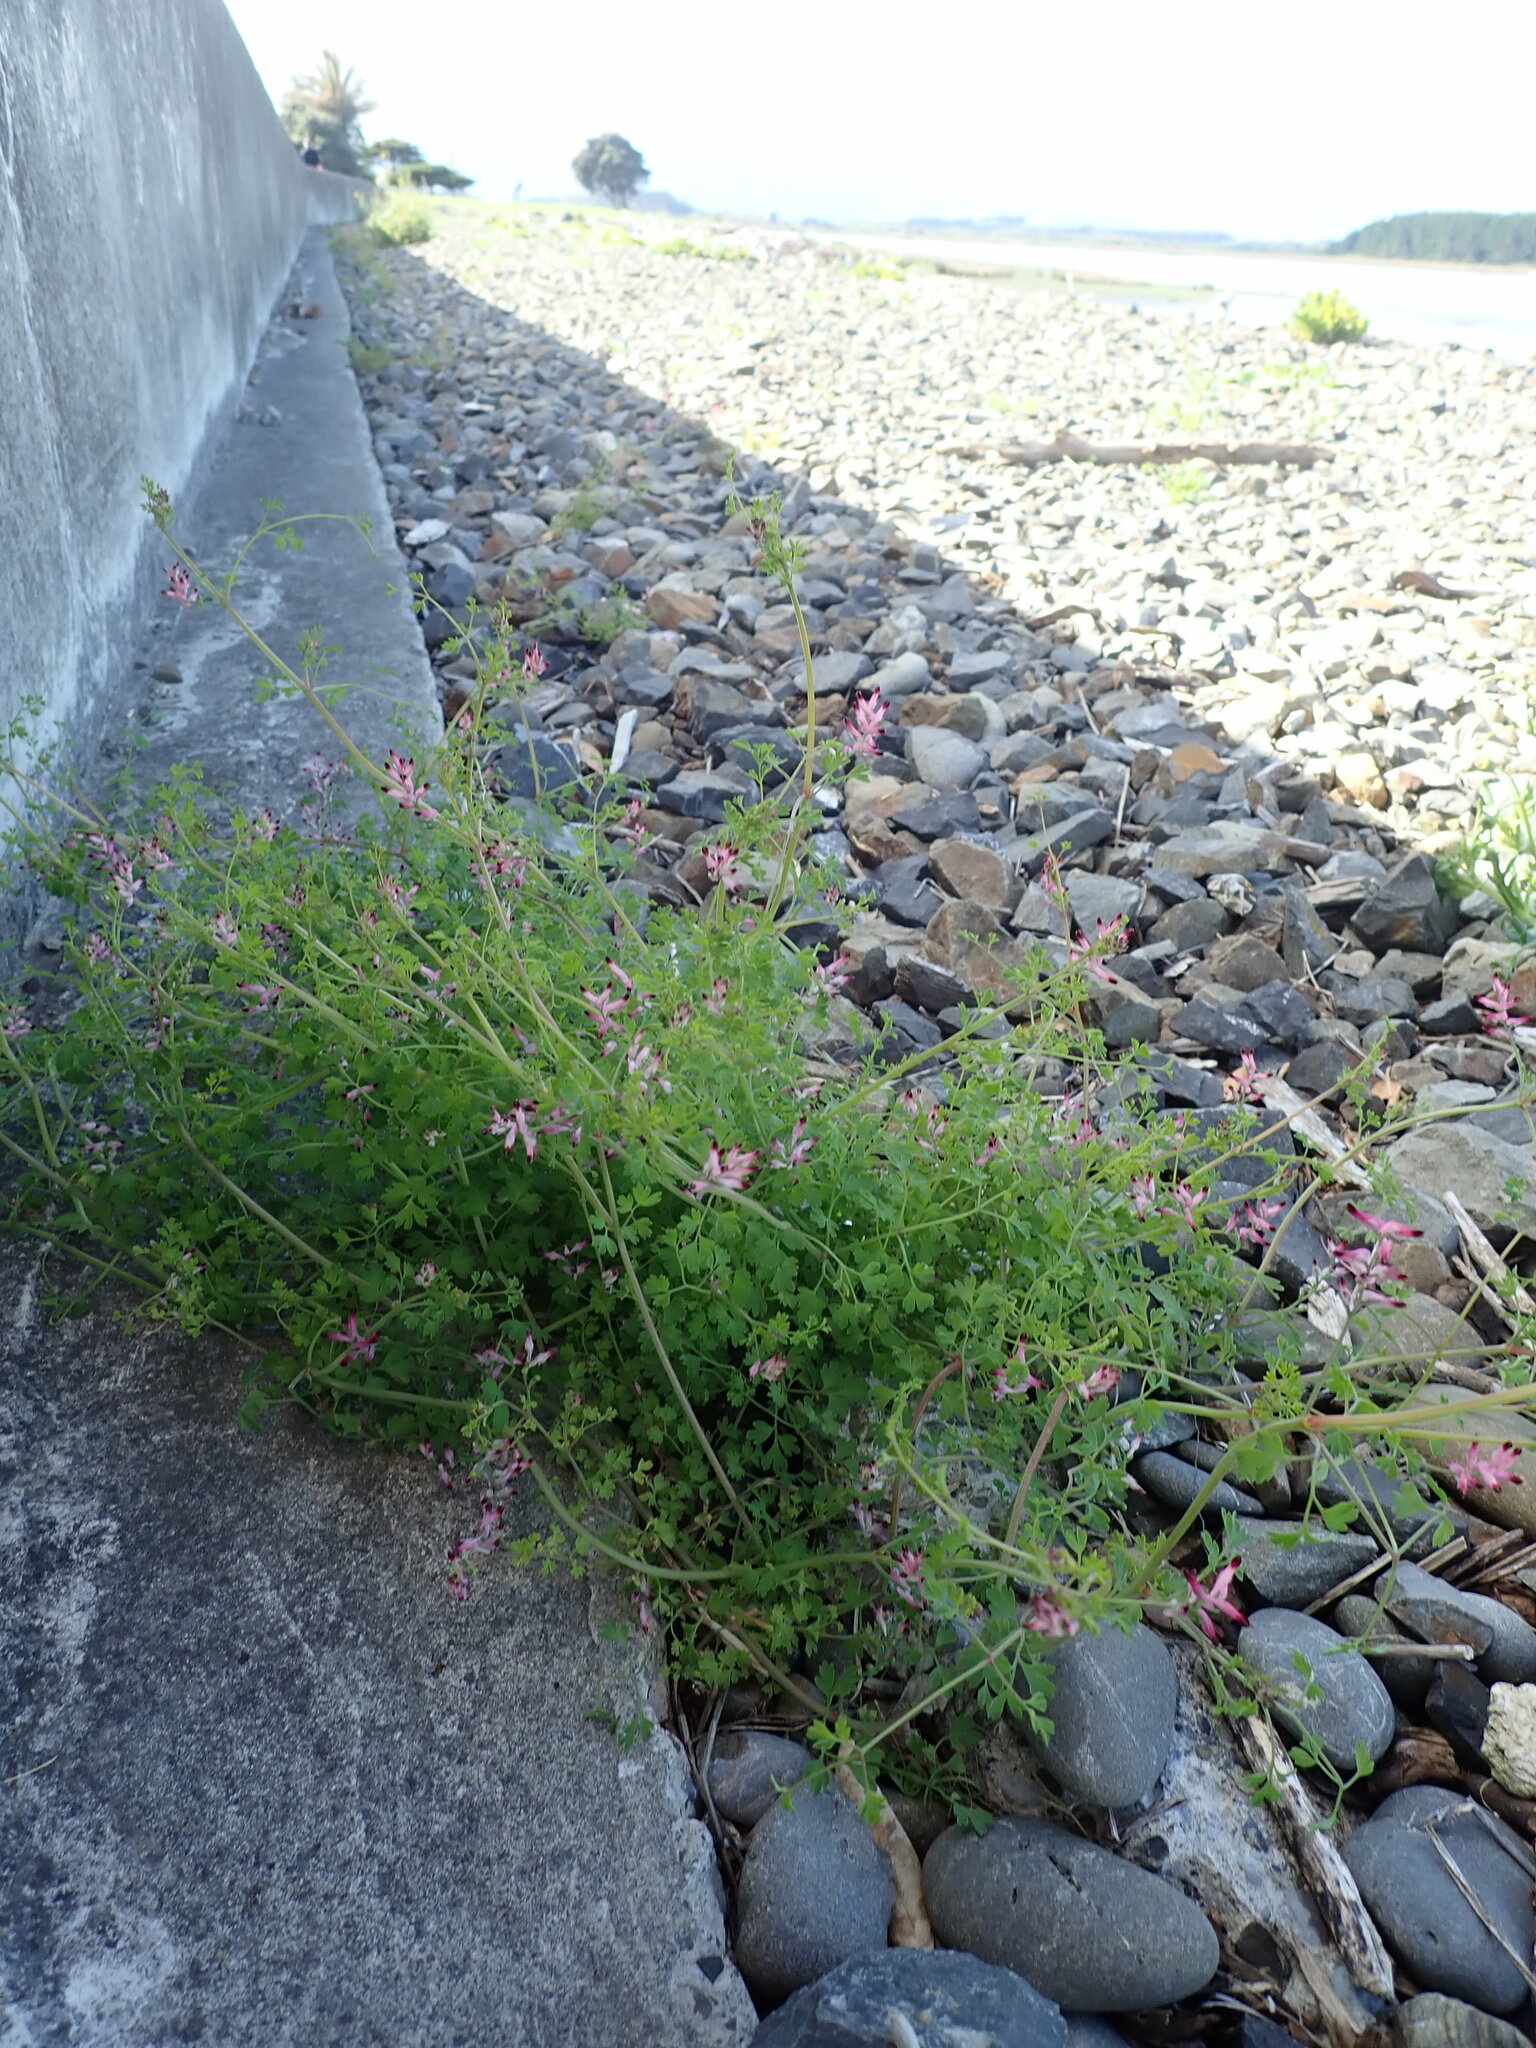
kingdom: Plantae
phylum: Tracheophyta
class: Magnoliopsida
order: Ranunculales
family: Papaveraceae
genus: Fumaria
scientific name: Fumaria muralis
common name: Common ramping-fumitory
